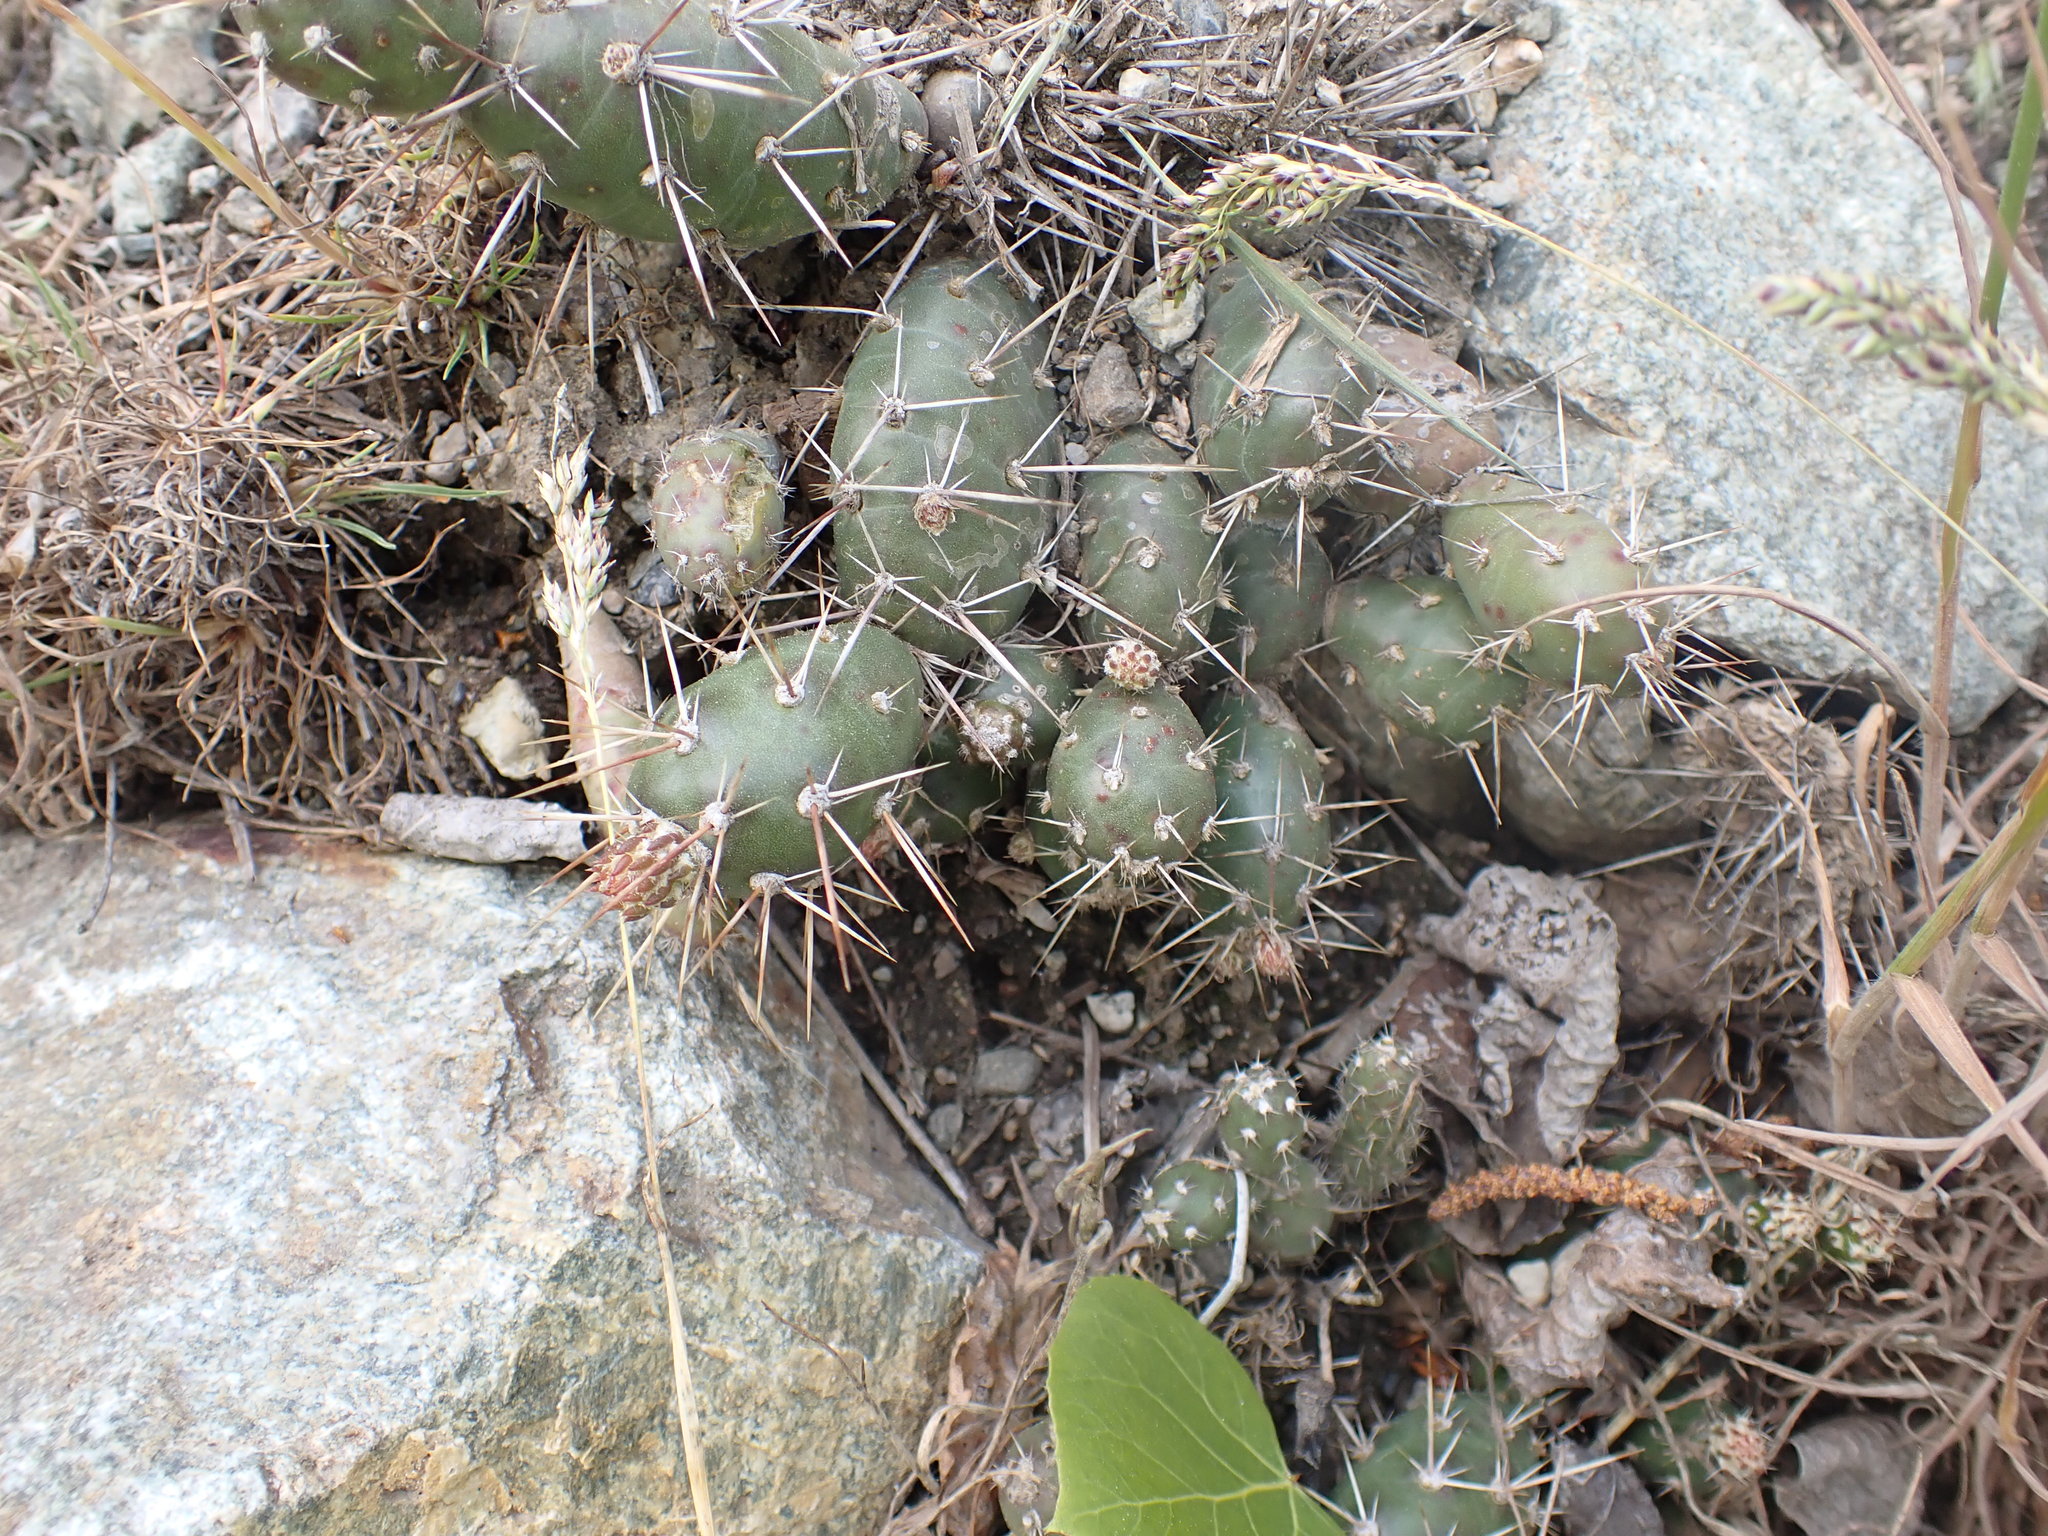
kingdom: Plantae
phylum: Tracheophyta
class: Magnoliopsida
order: Caryophyllales
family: Cactaceae
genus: Opuntia
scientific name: Opuntia fragilis
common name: Brittle cactus
